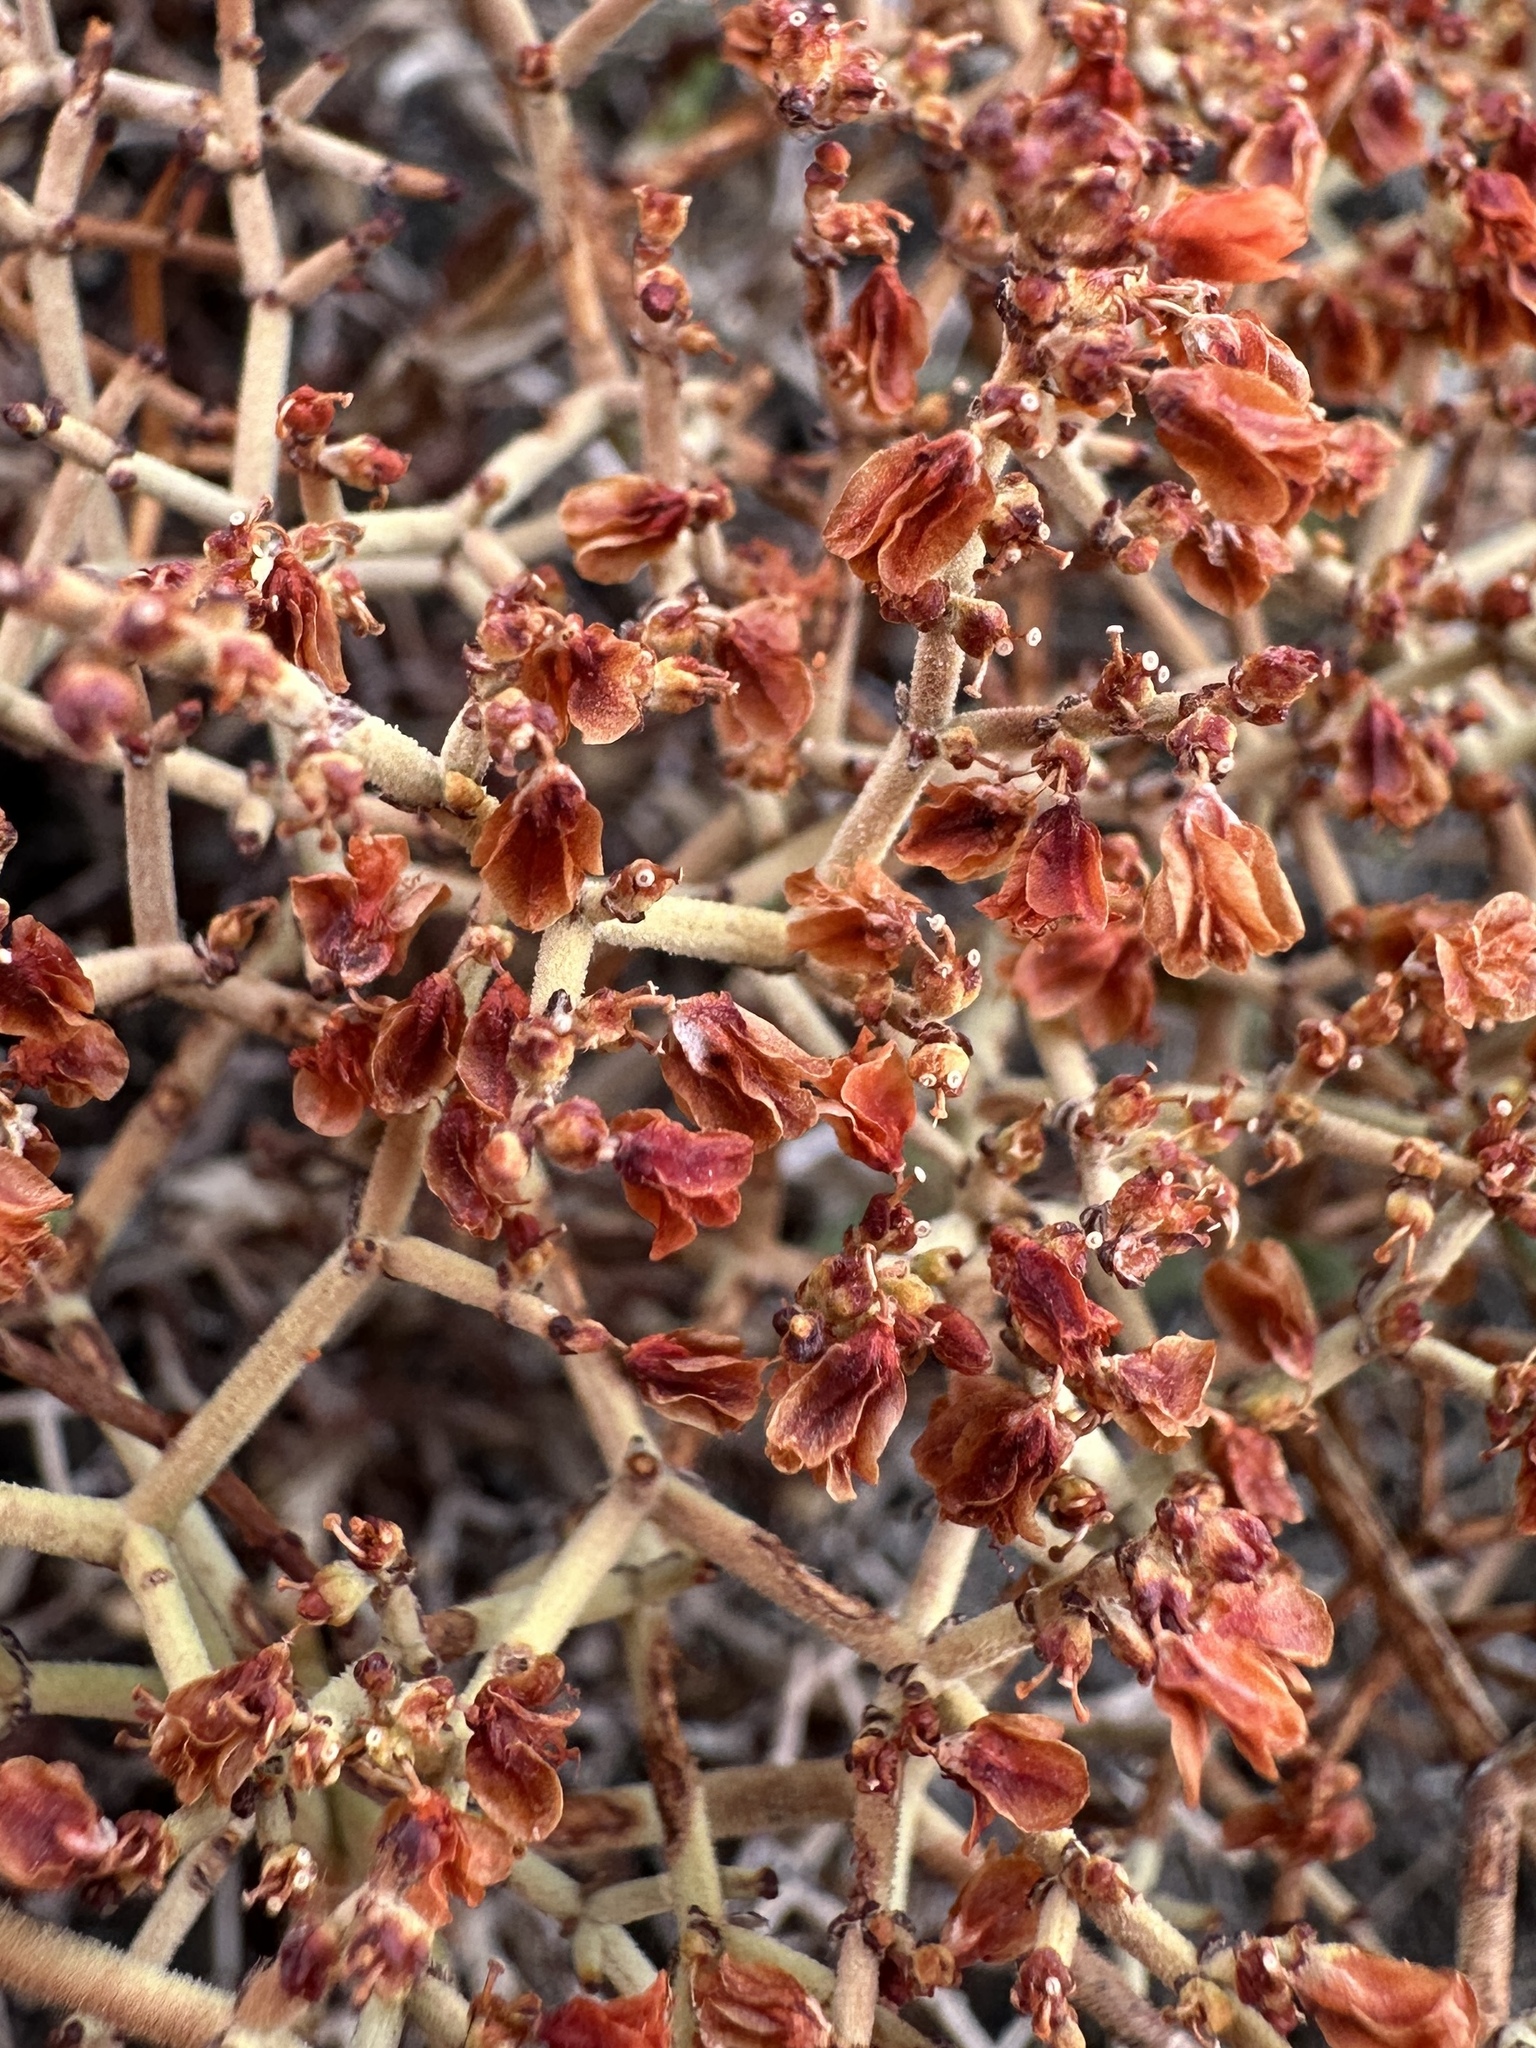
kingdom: Plantae
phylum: Tracheophyta
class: Magnoliopsida
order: Caryophyllales
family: Polygonaceae
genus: Eriogonum
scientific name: Eriogonum heermannii
